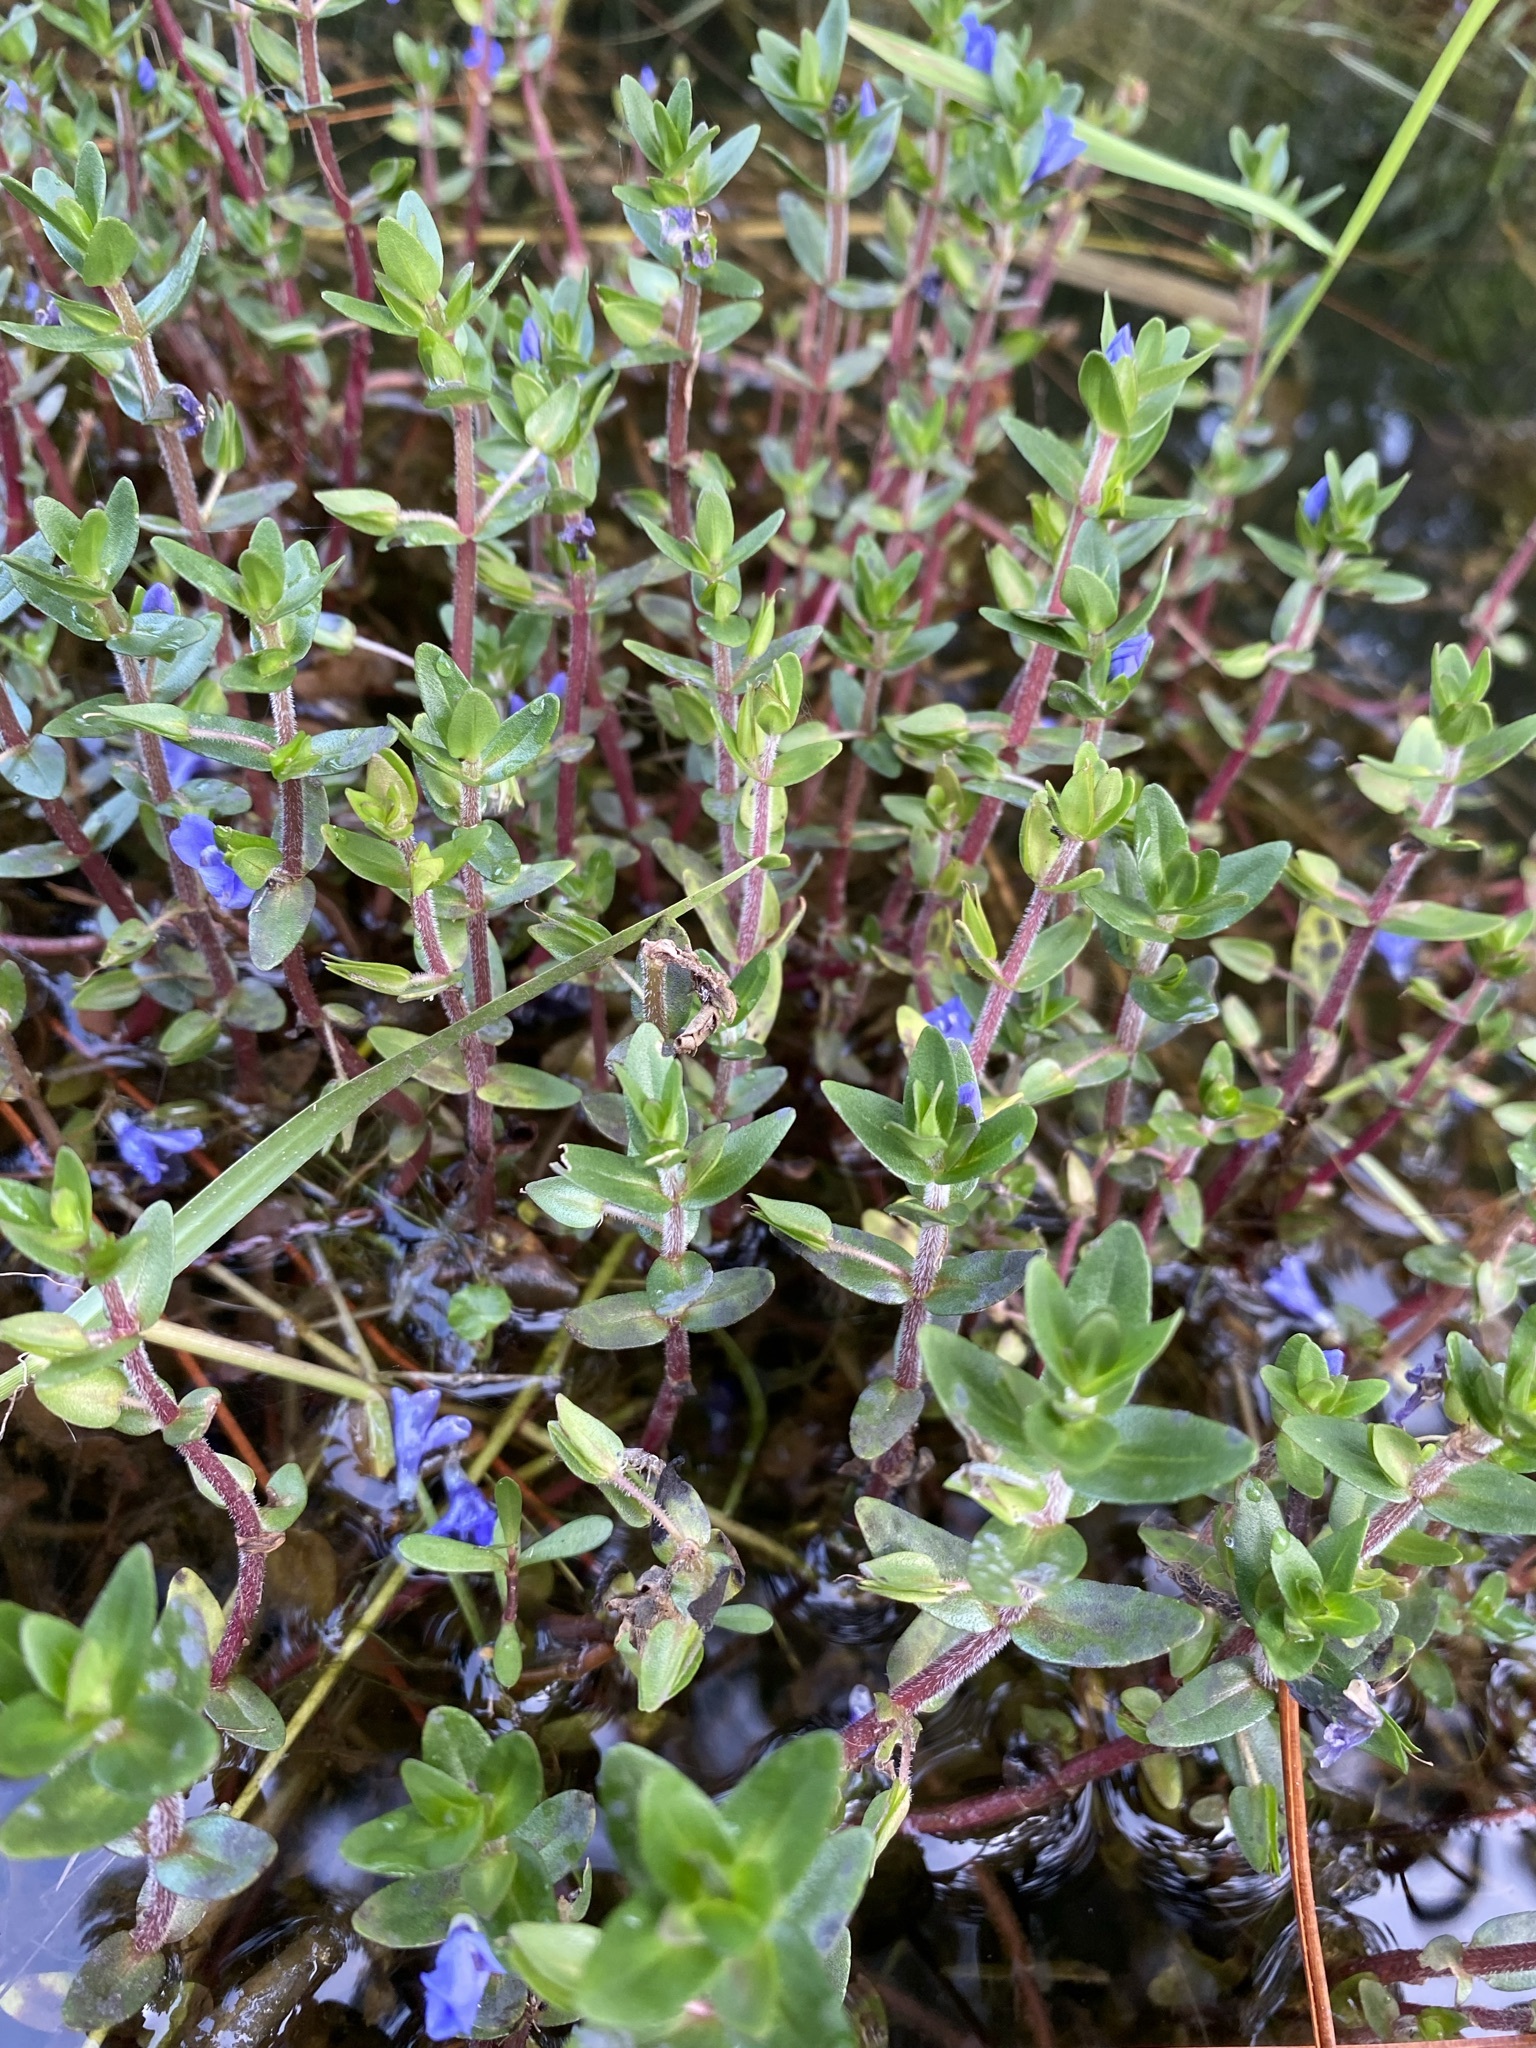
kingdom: Plantae
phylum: Tracheophyta
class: Magnoliopsida
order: Lamiales
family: Plantaginaceae
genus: Bacopa
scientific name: Bacopa caroliniana
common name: Lemon bacopa
